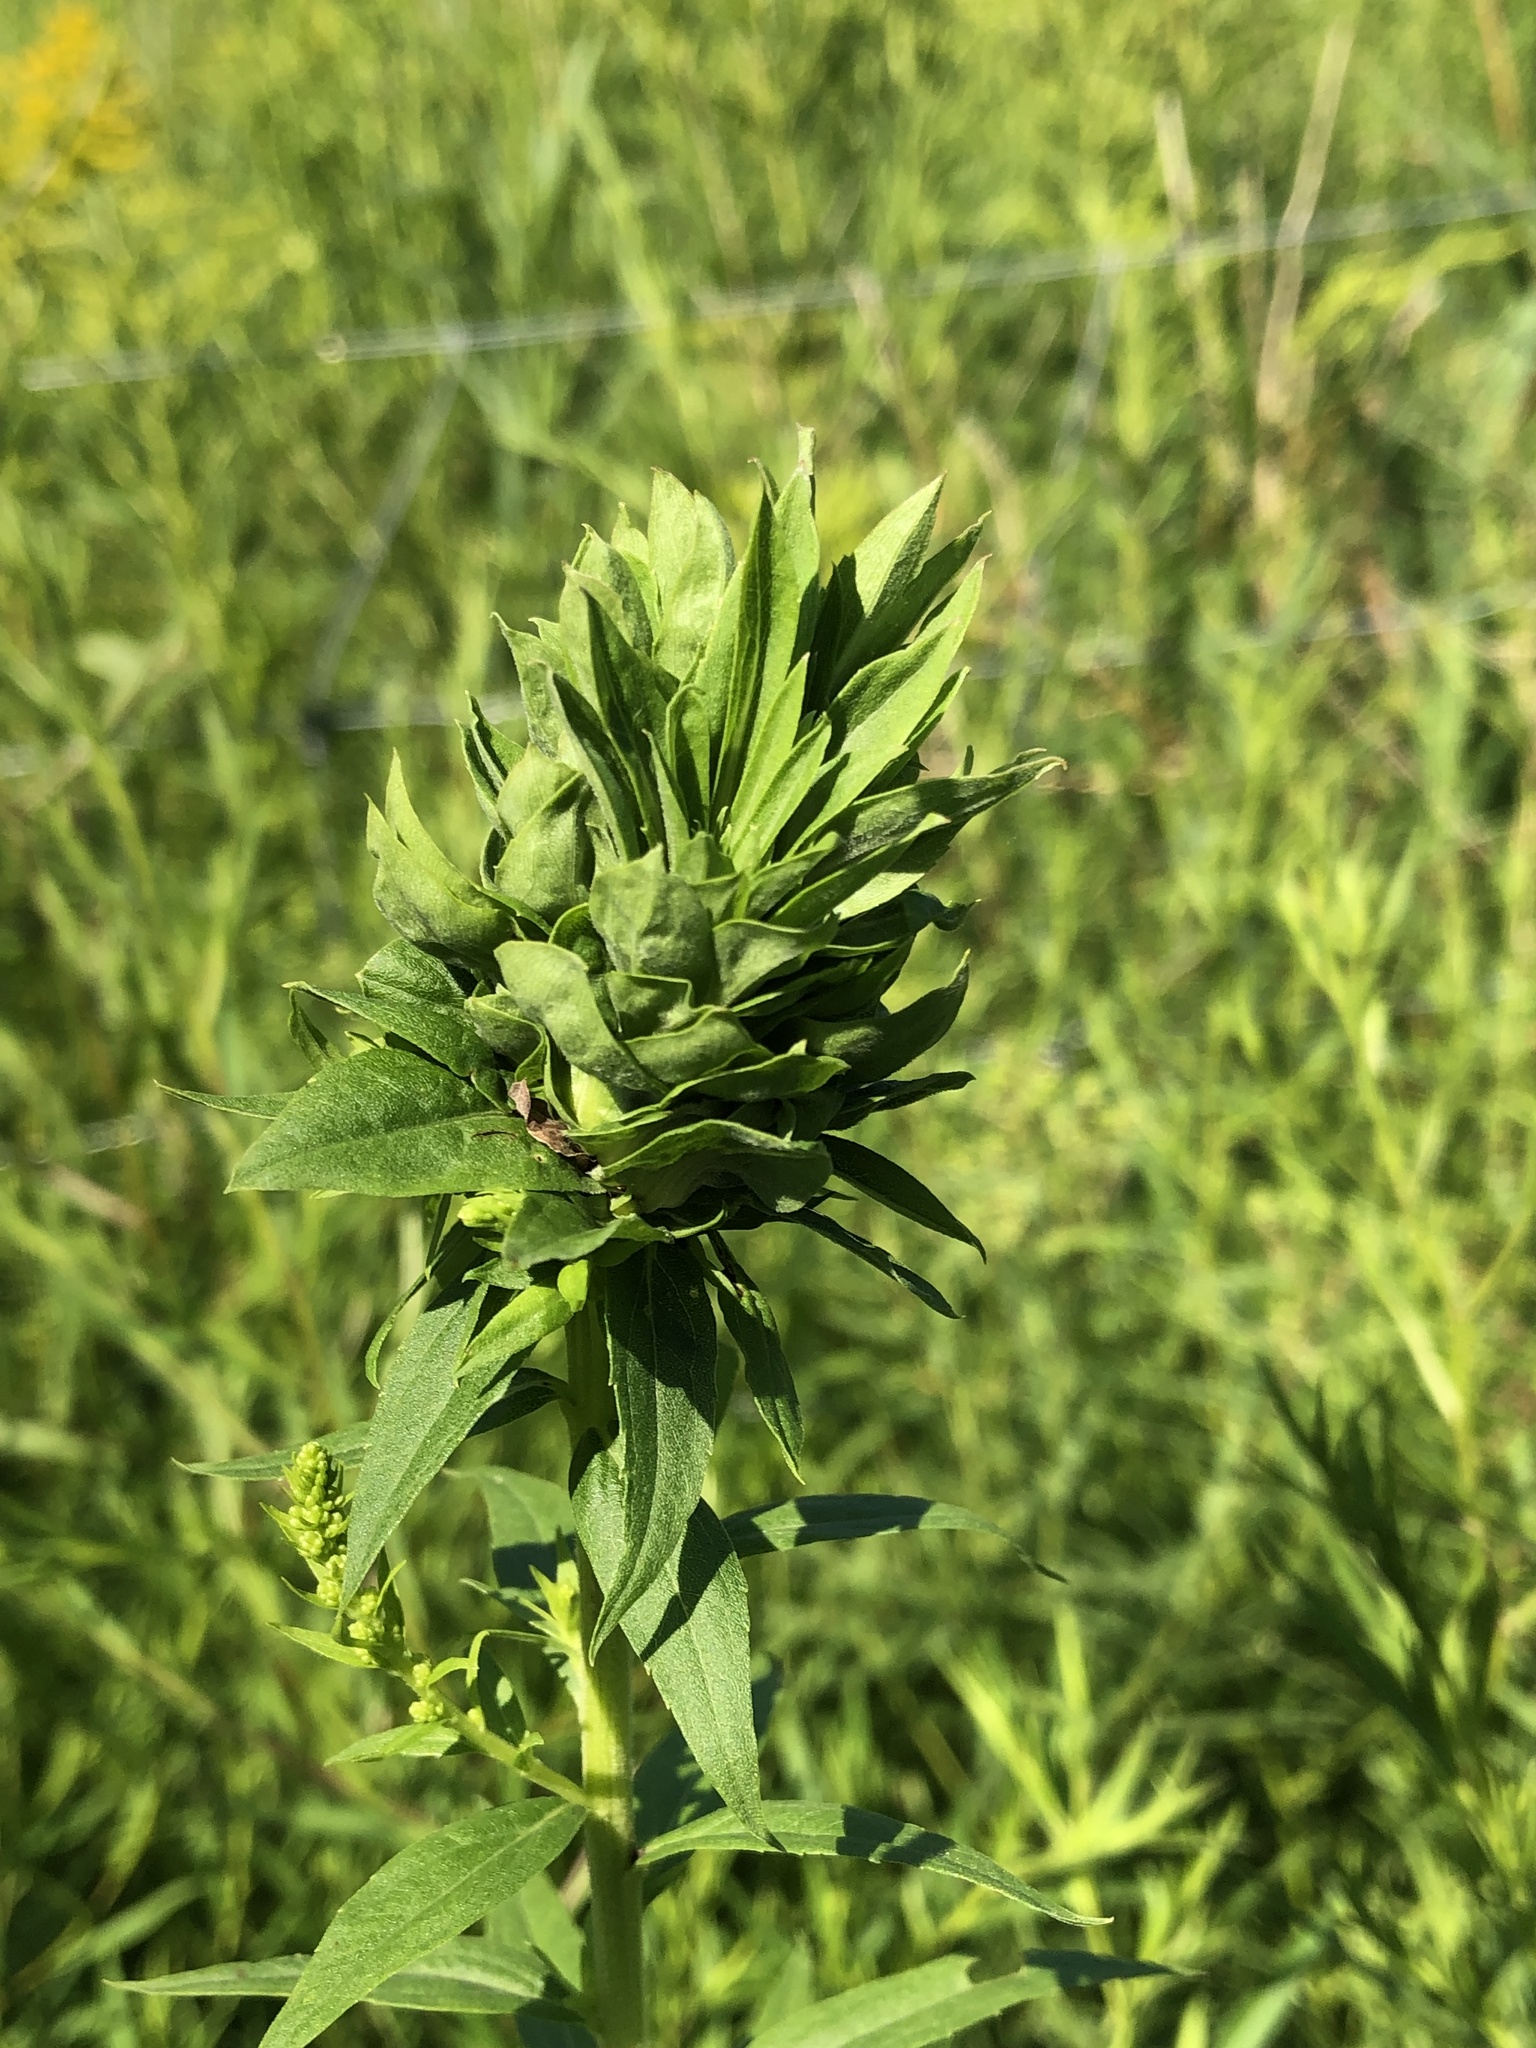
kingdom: Animalia
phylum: Arthropoda
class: Insecta
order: Diptera
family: Cecidomyiidae
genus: Rhopalomyia
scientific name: Rhopalomyia solidaginis
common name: Goldenrod bunch gall midge
